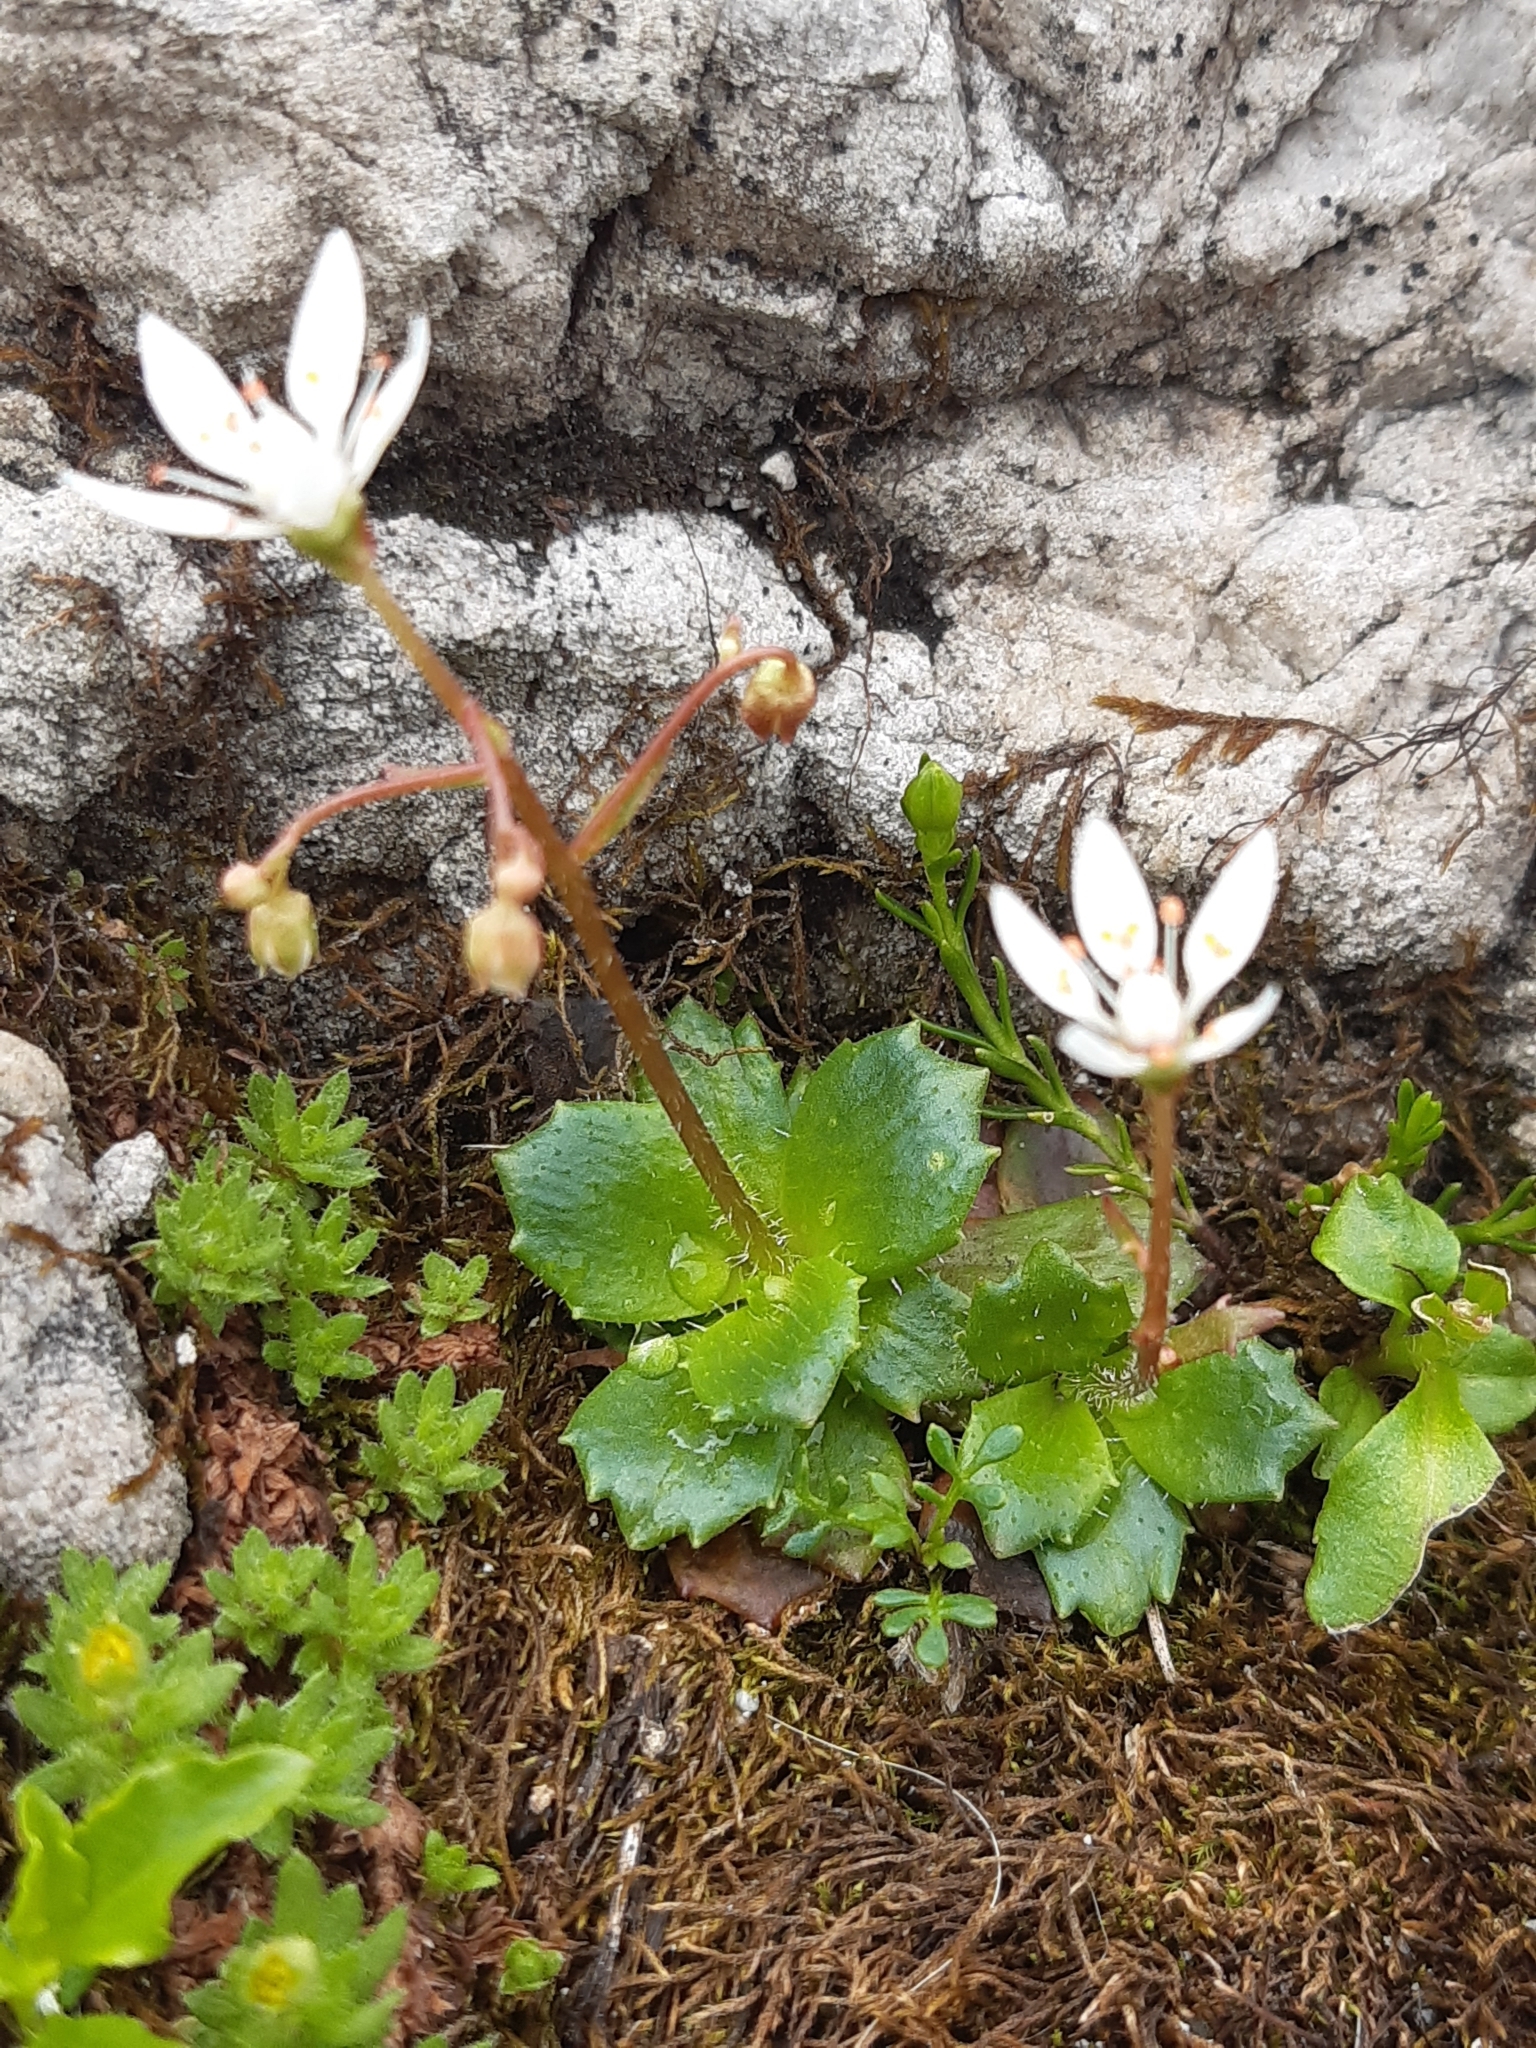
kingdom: Plantae
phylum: Tracheophyta
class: Magnoliopsida
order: Saxifragales
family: Saxifragaceae
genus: Micranthes
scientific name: Micranthes stellaris
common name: Starry saxifrage
